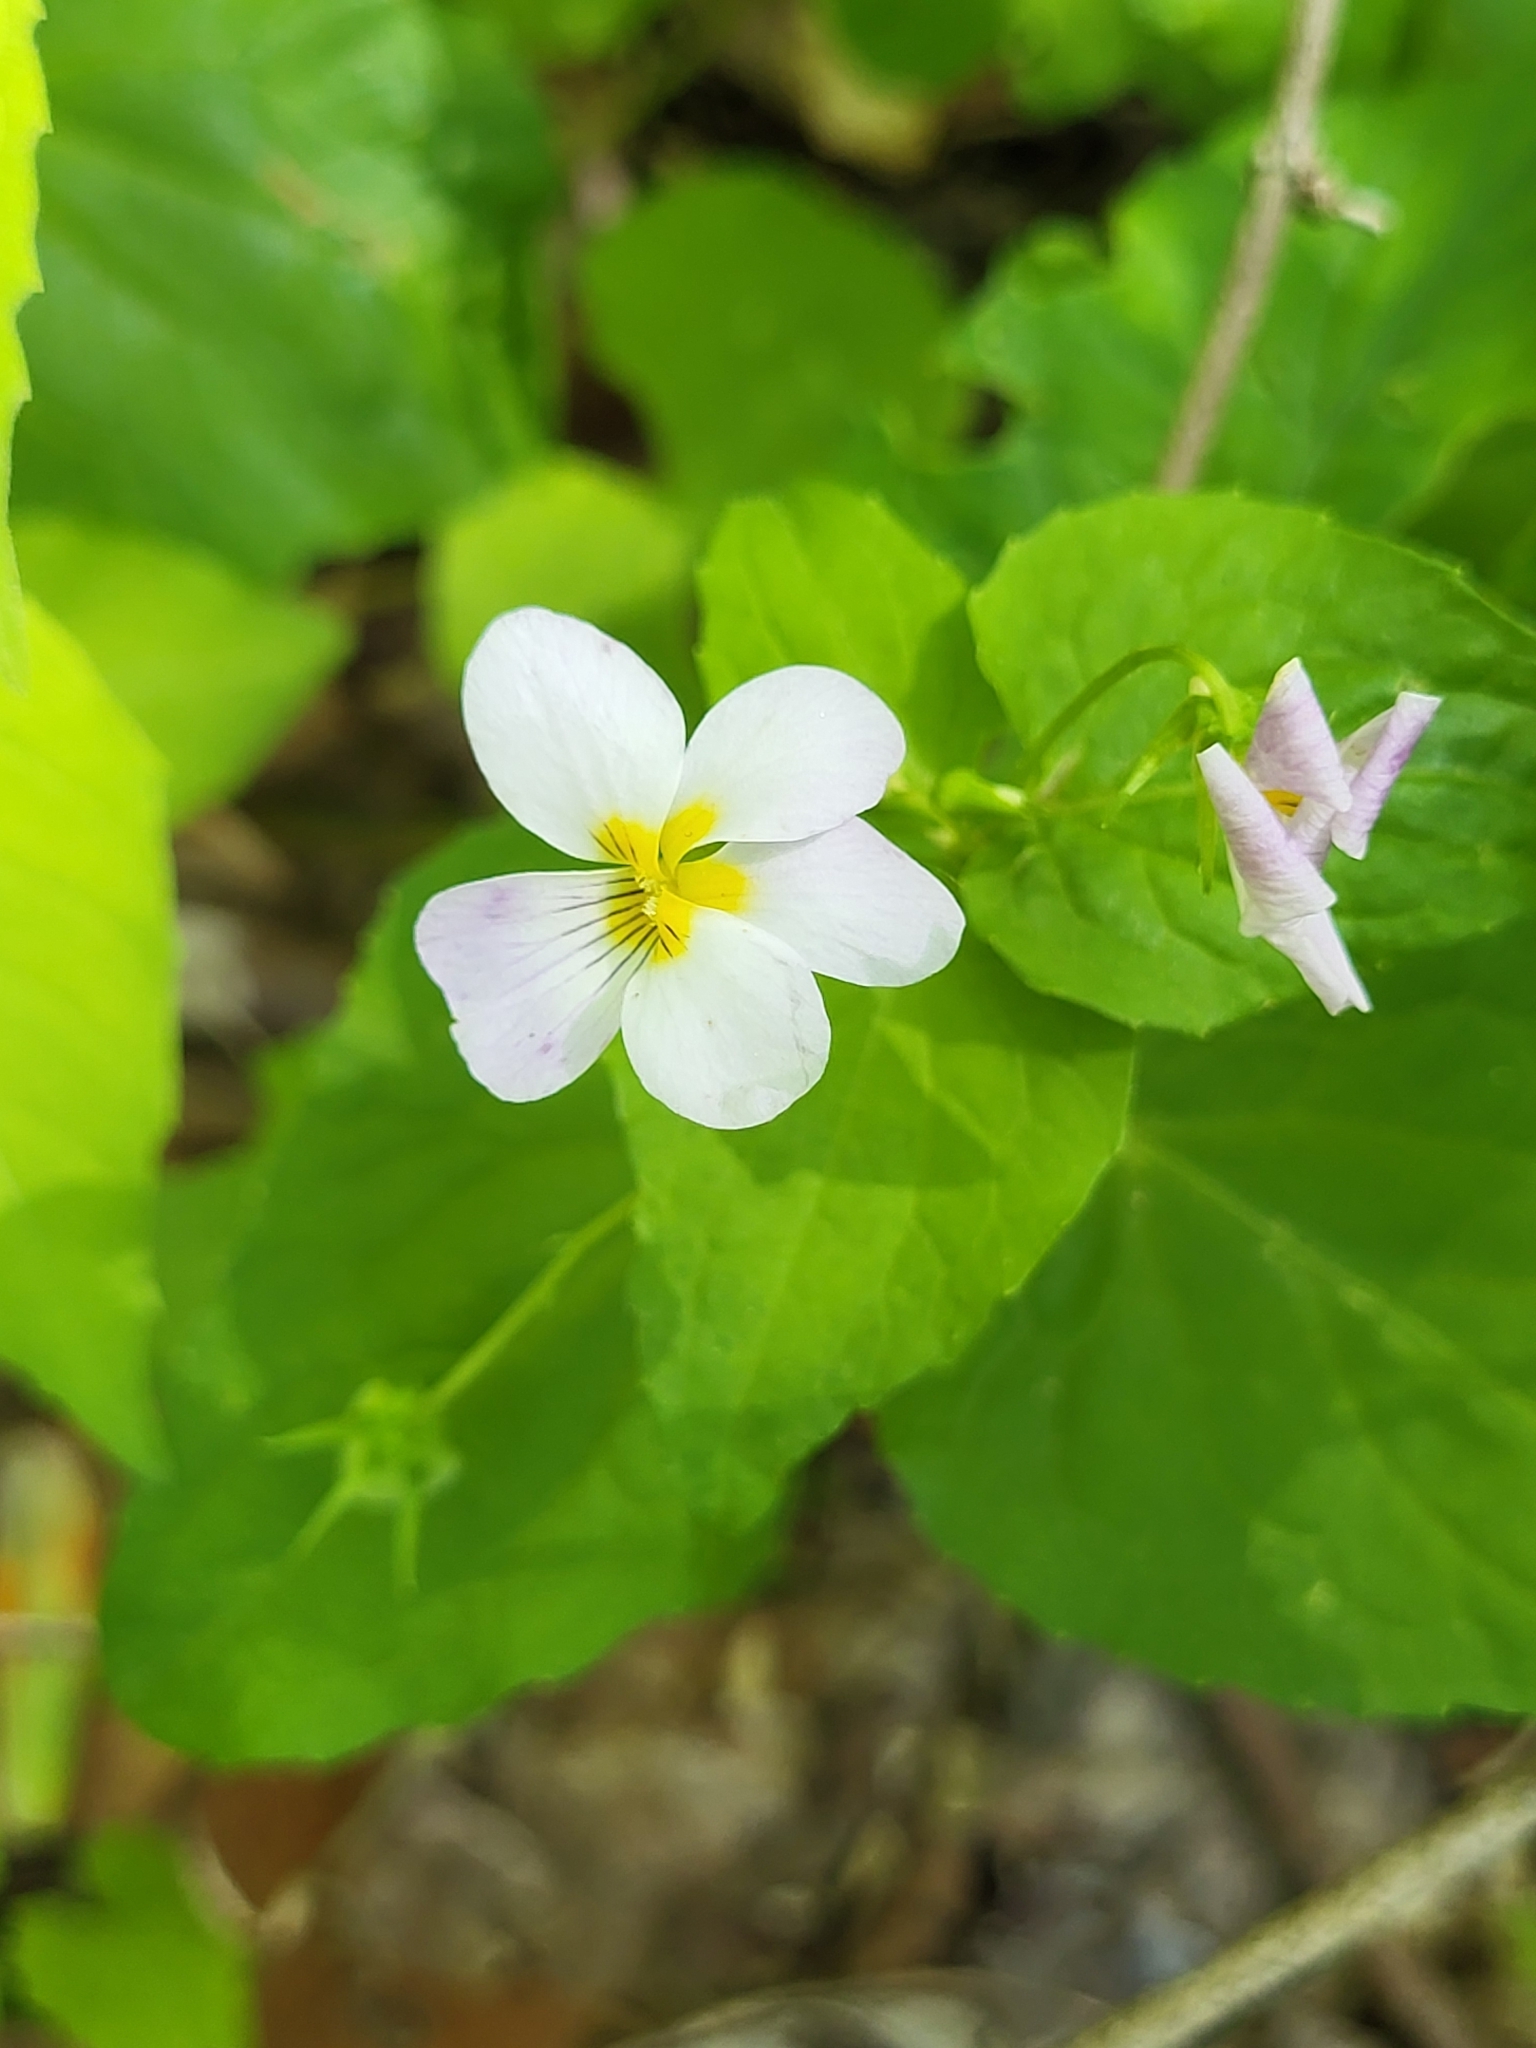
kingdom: Plantae
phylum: Tracheophyta
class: Magnoliopsida
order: Malpighiales
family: Violaceae
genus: Viola
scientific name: Viola canadensis
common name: Canada violet
